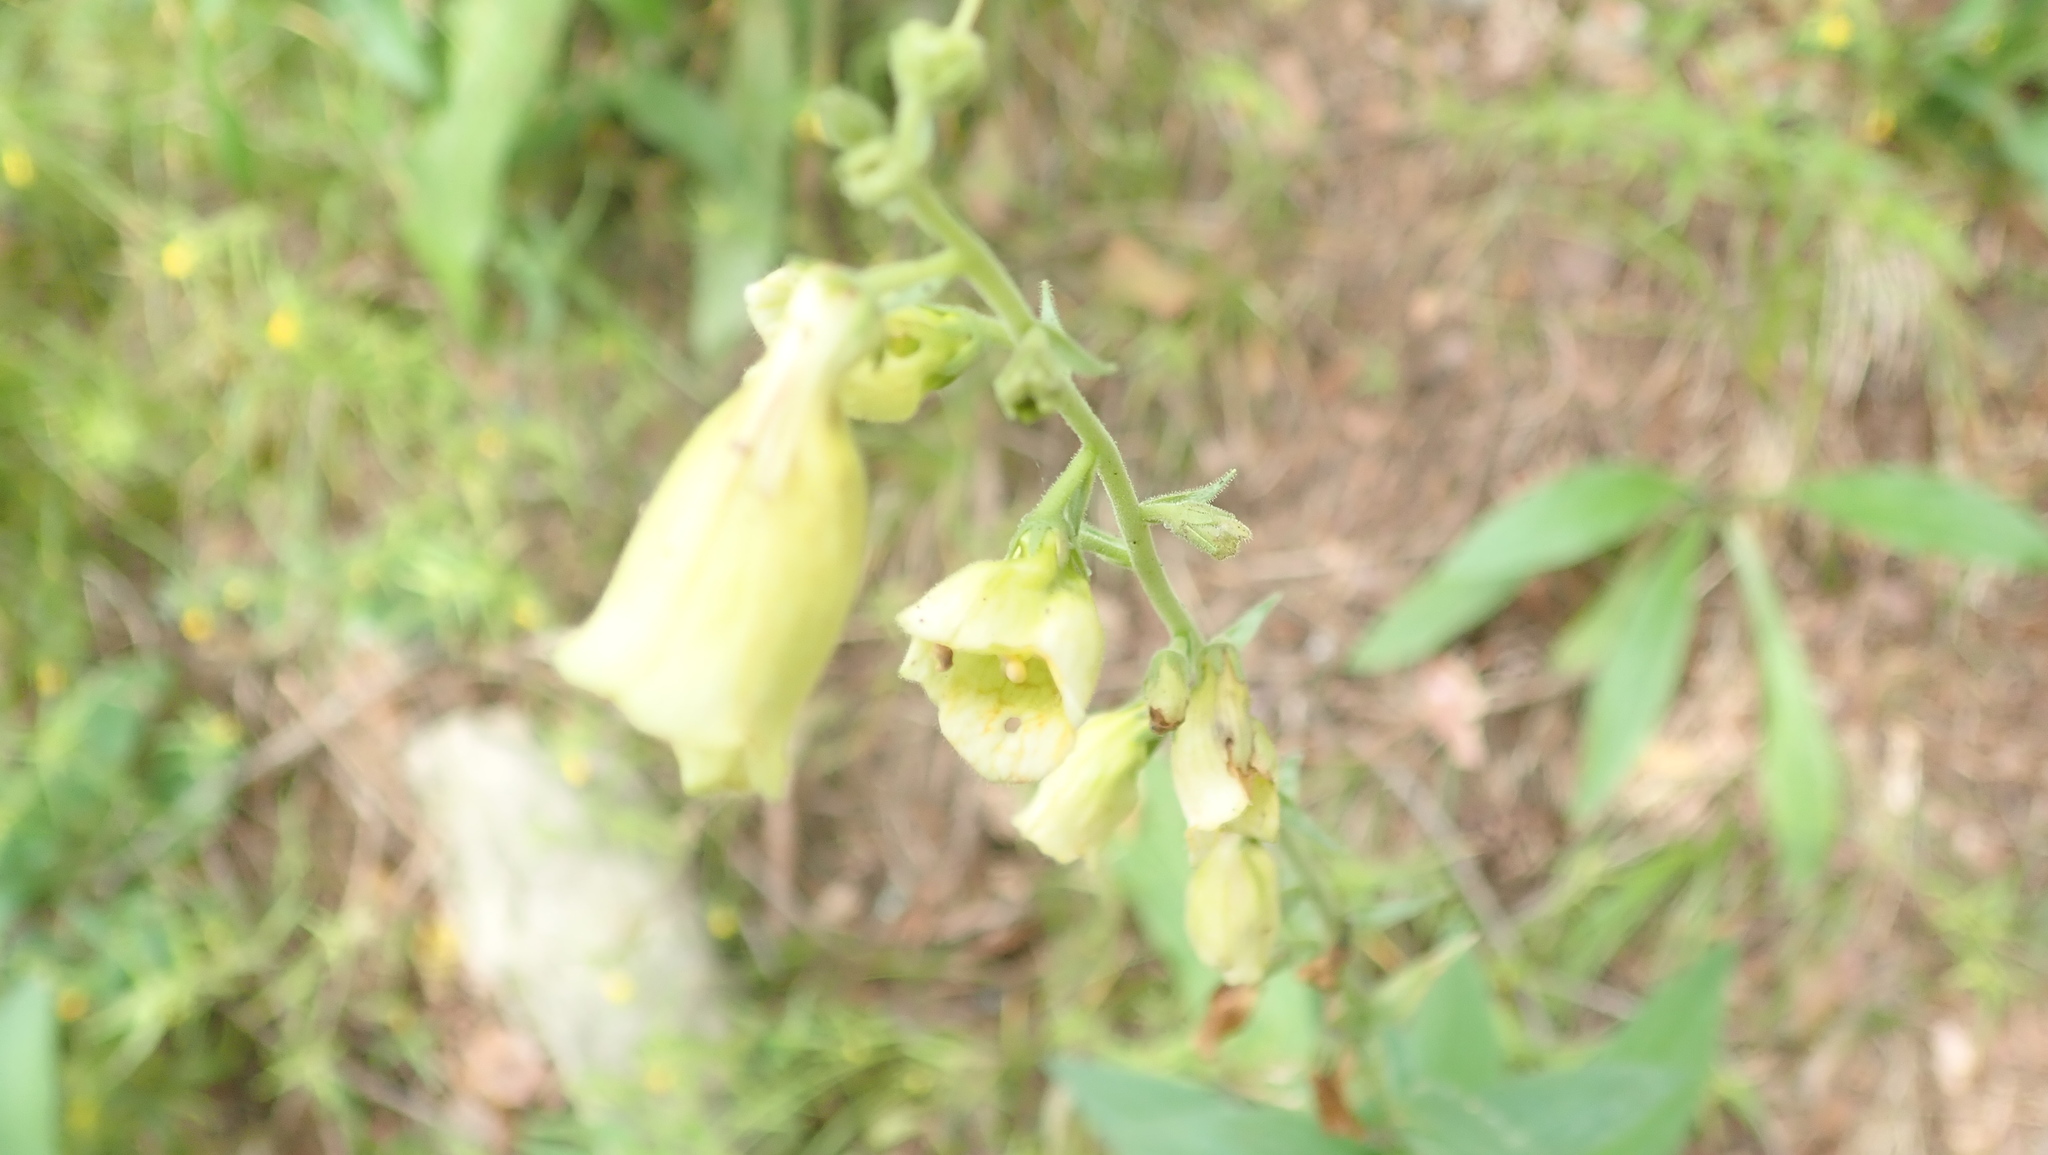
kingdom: Plantae
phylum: Tracheophyta
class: Magnoliopsida
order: Lamiales
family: Plantaginaceae
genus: Digitalis
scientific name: Digitalis grandiflora
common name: Yellow foxglove
